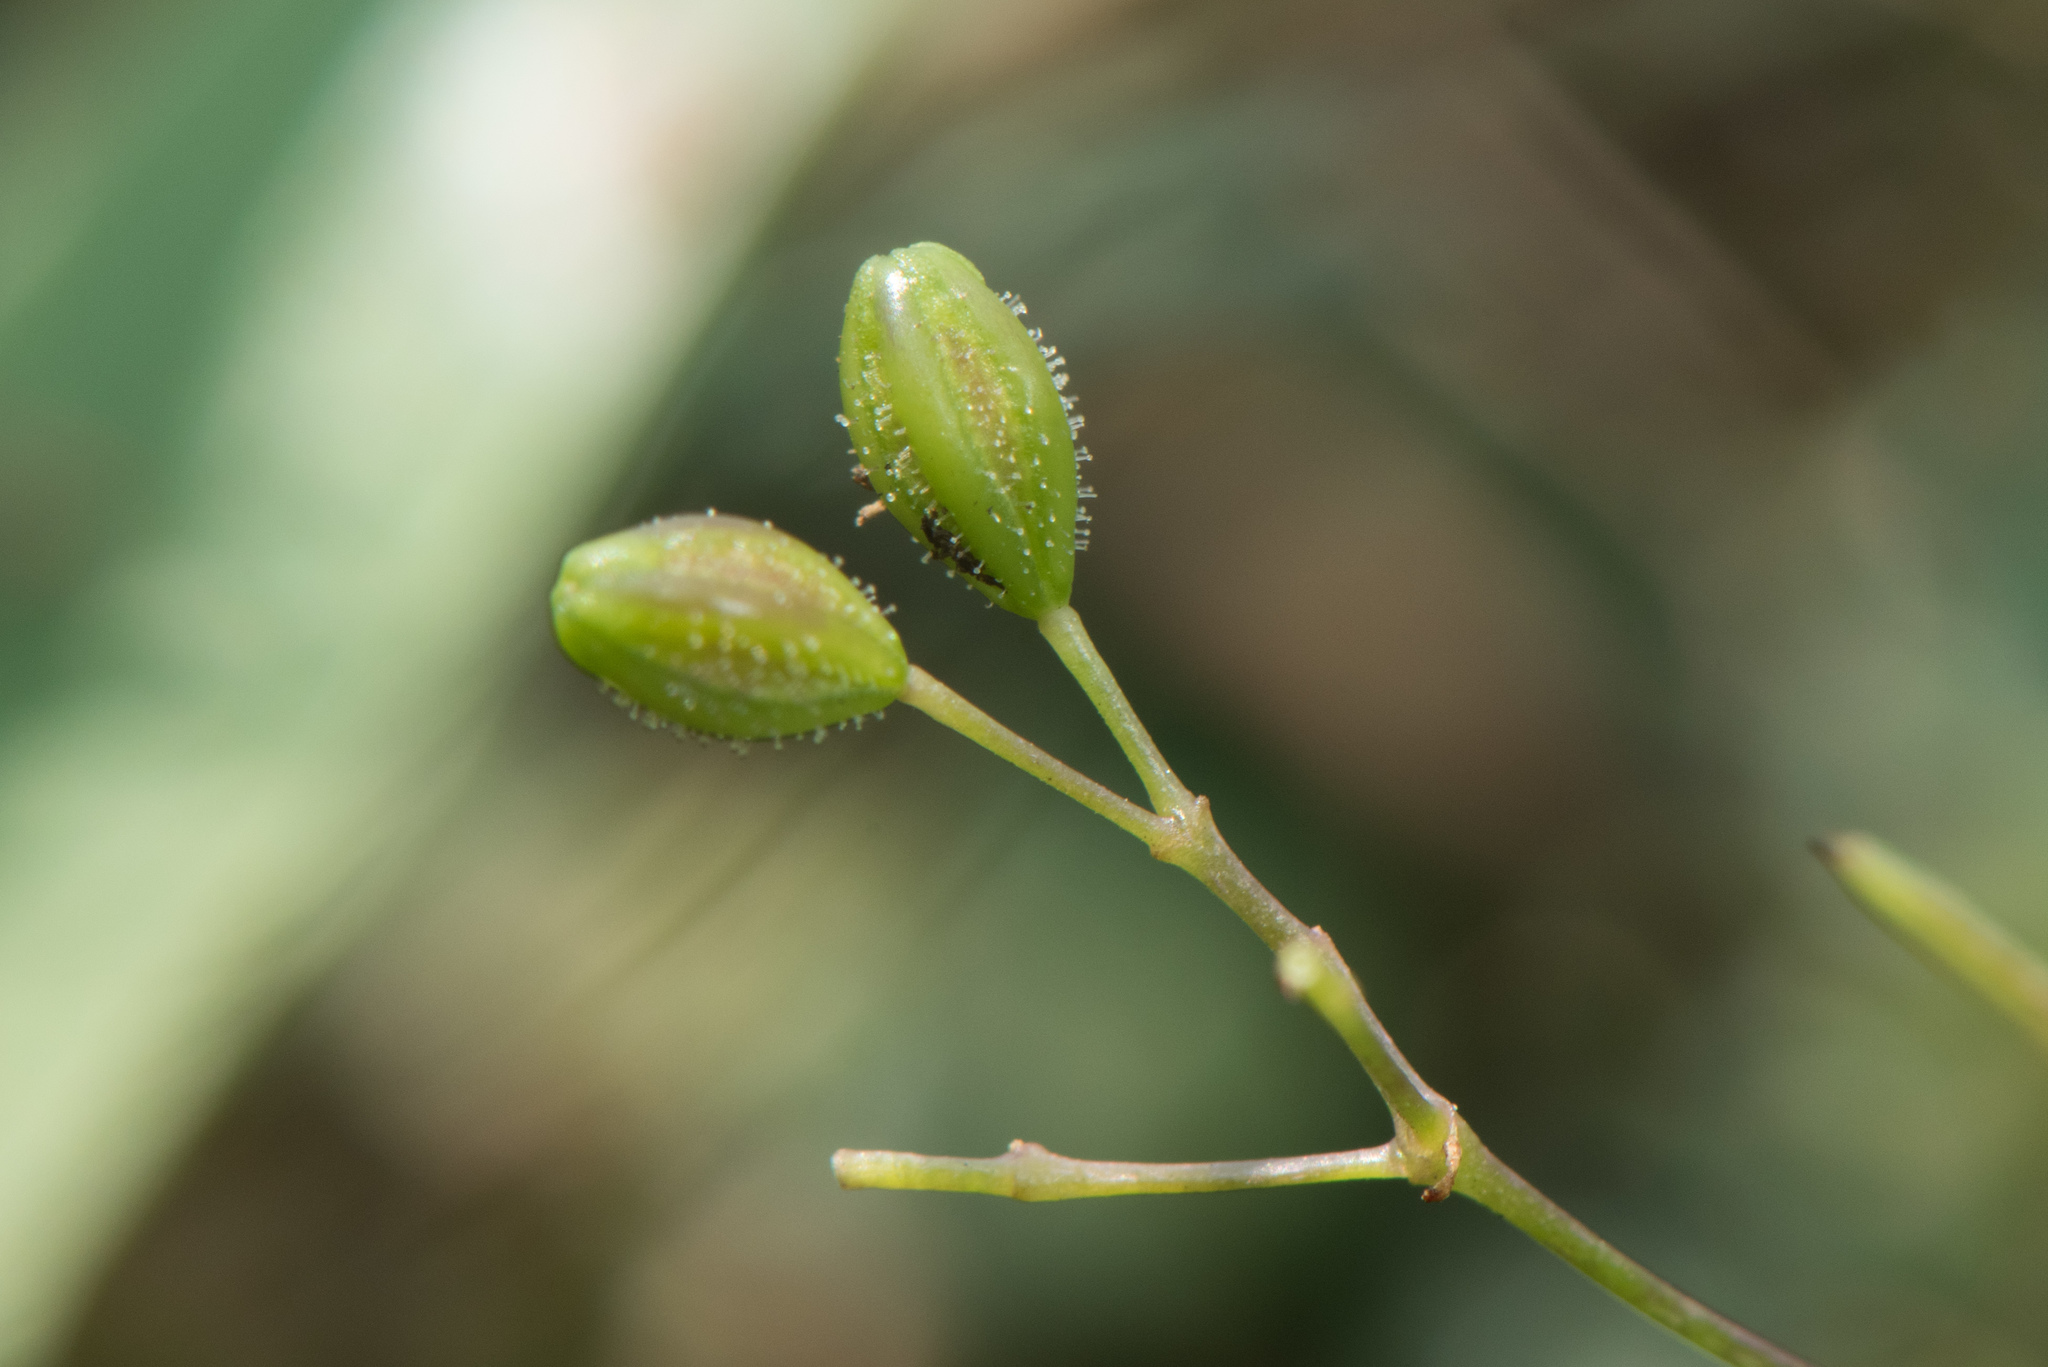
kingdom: Plantae
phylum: Tracheophyta
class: Magnoliopsida
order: Caryophyllales
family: Nyctaginaceae
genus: Boerhavia
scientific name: Boerhavia glabrata
